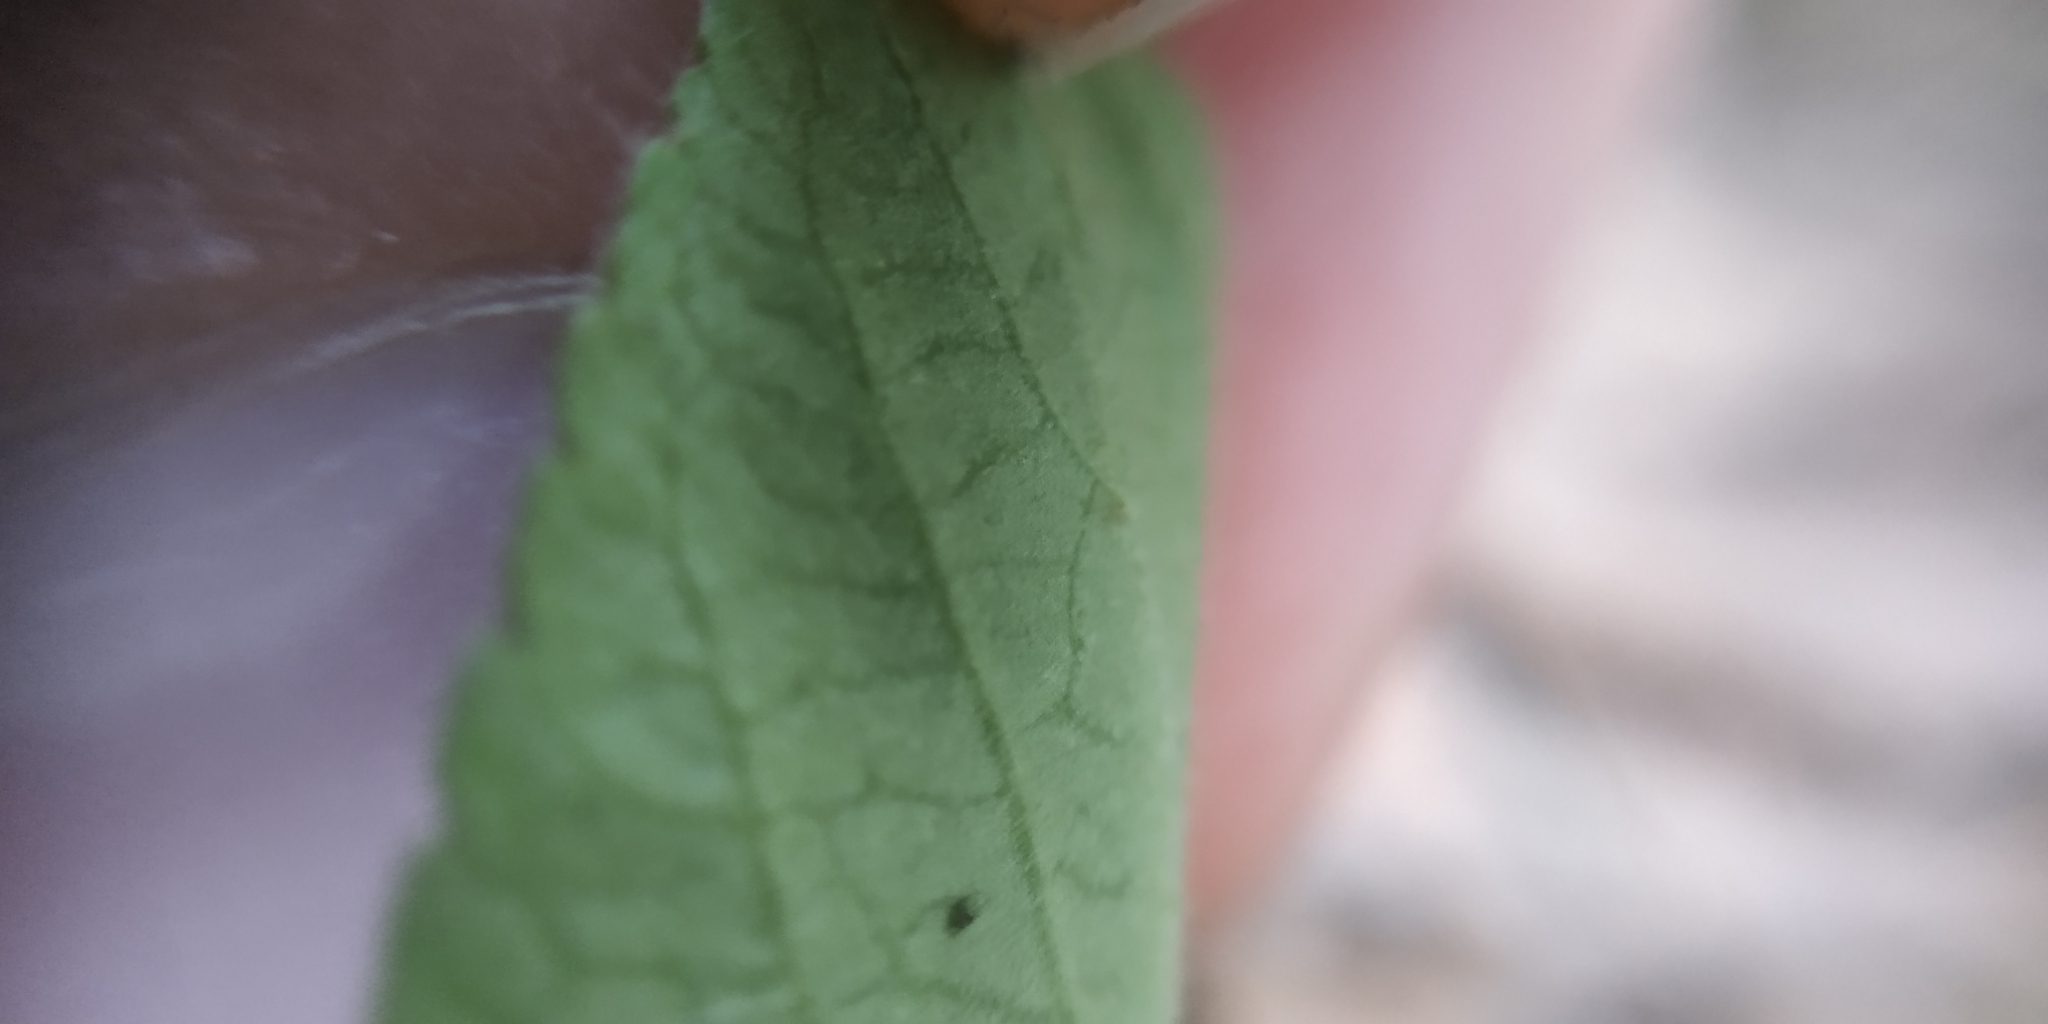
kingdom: Plantae
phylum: Tracheophyta
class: Magnoliopsida
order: Malpighiales
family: Violaceae
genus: Viola
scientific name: Viola hirta
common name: Hairy violet
